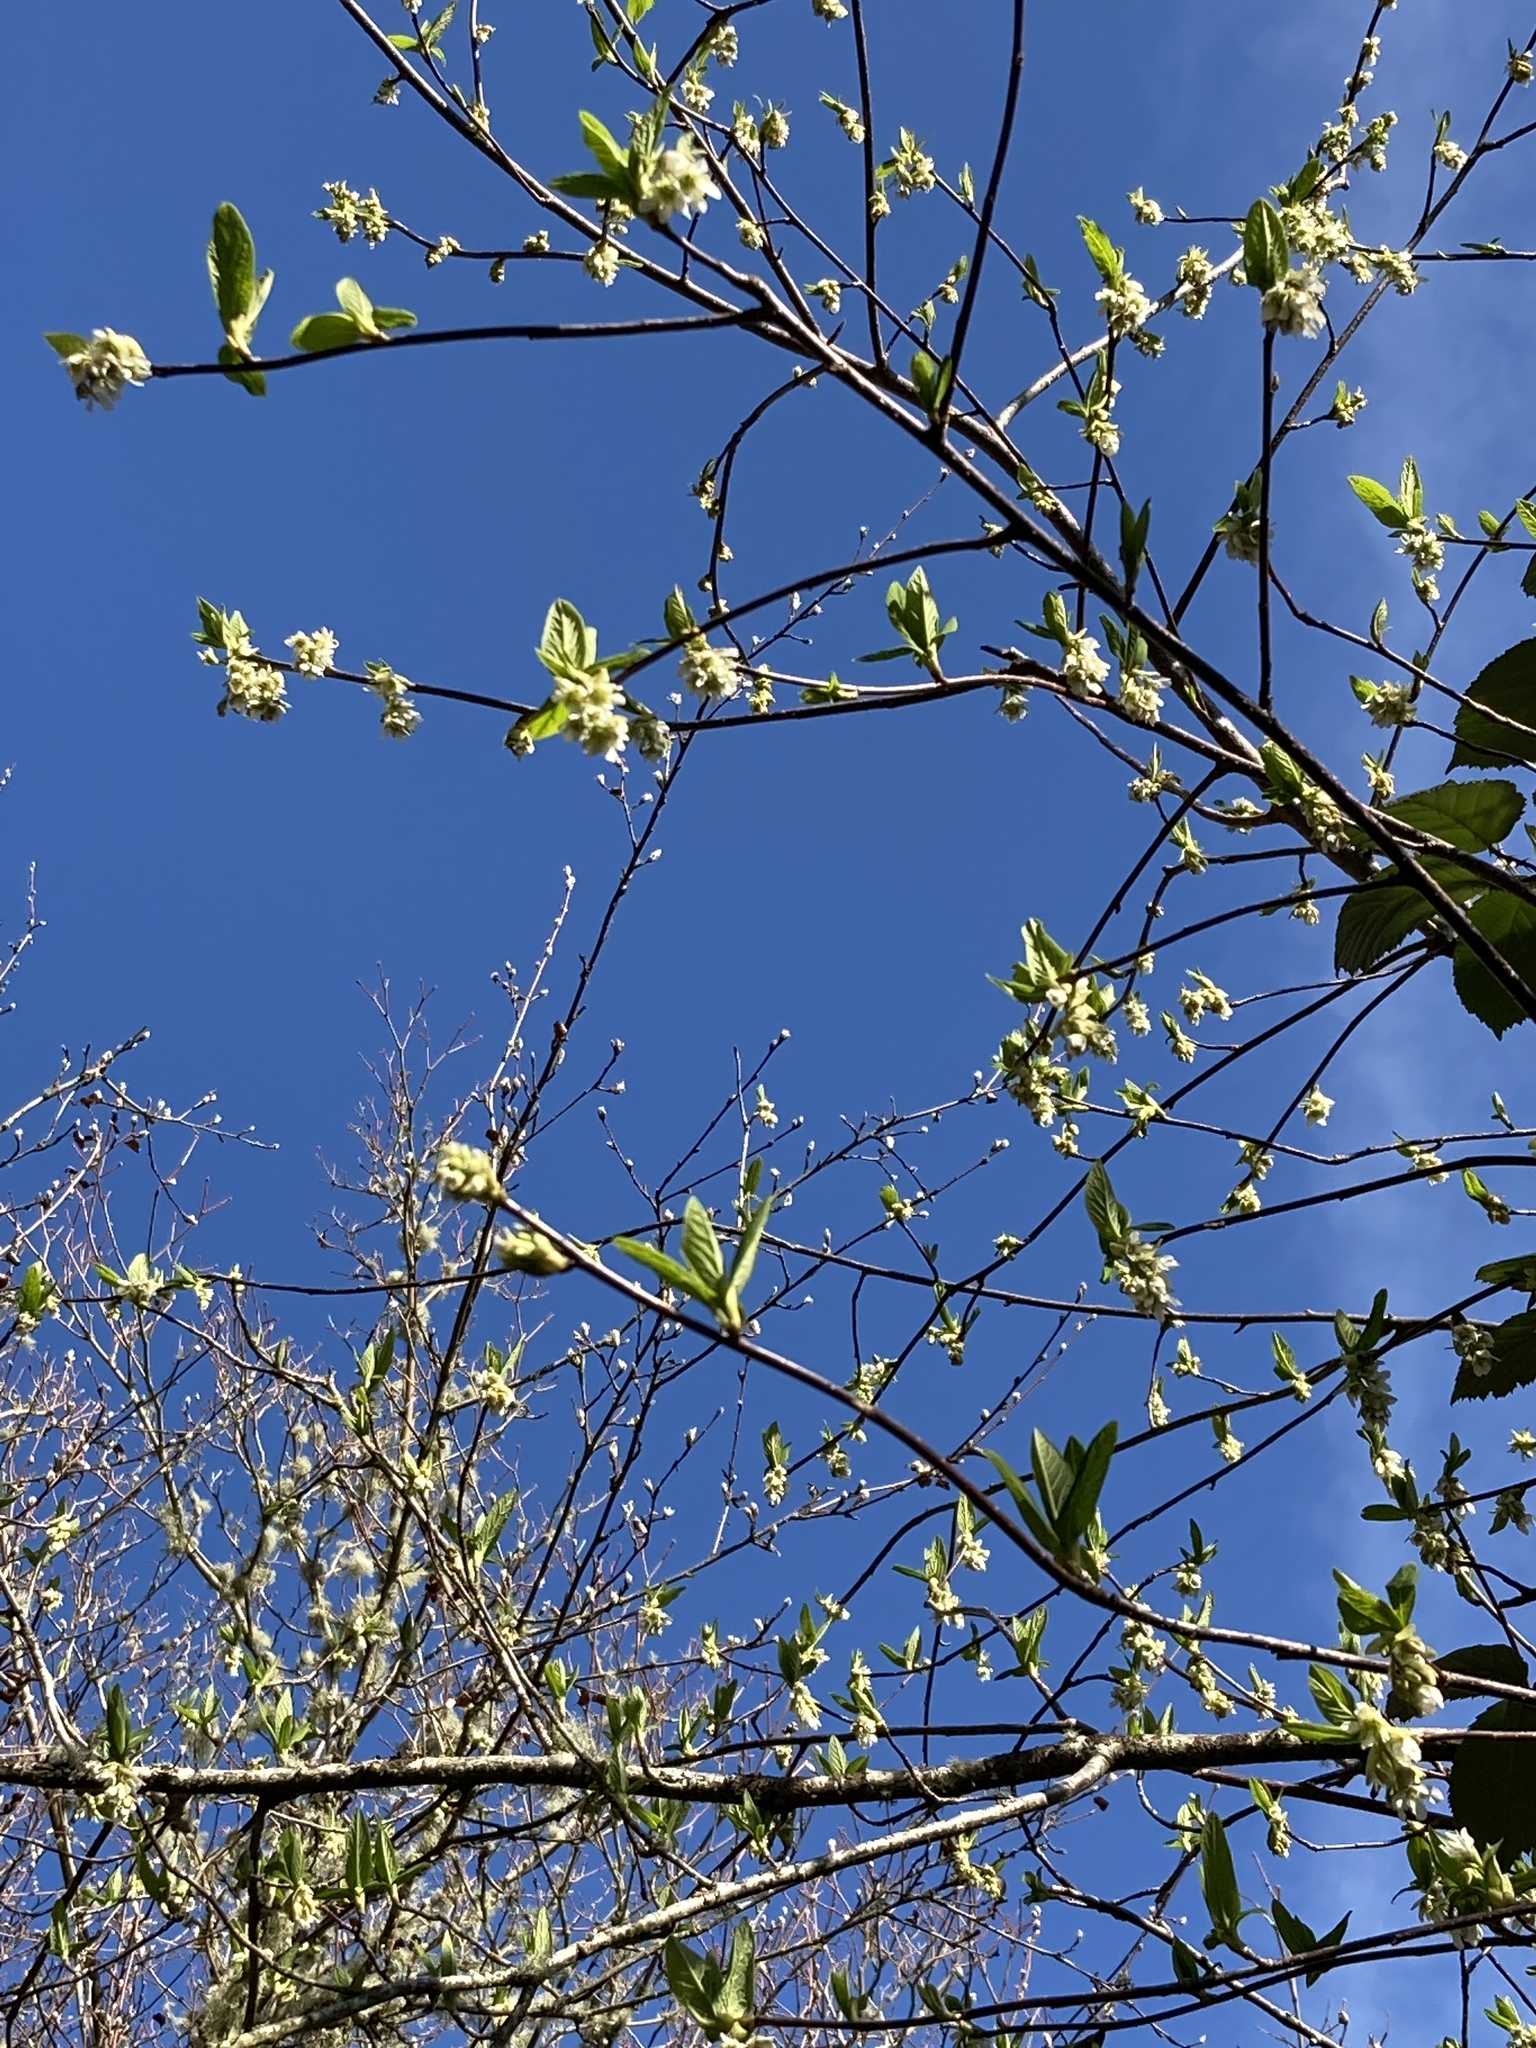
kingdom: Plantae
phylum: Tracheophyta
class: Magnoliopsida
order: Rosales
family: Rosaceae
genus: Oemleria
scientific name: Oemleria cerasiformis
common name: Osoberry
